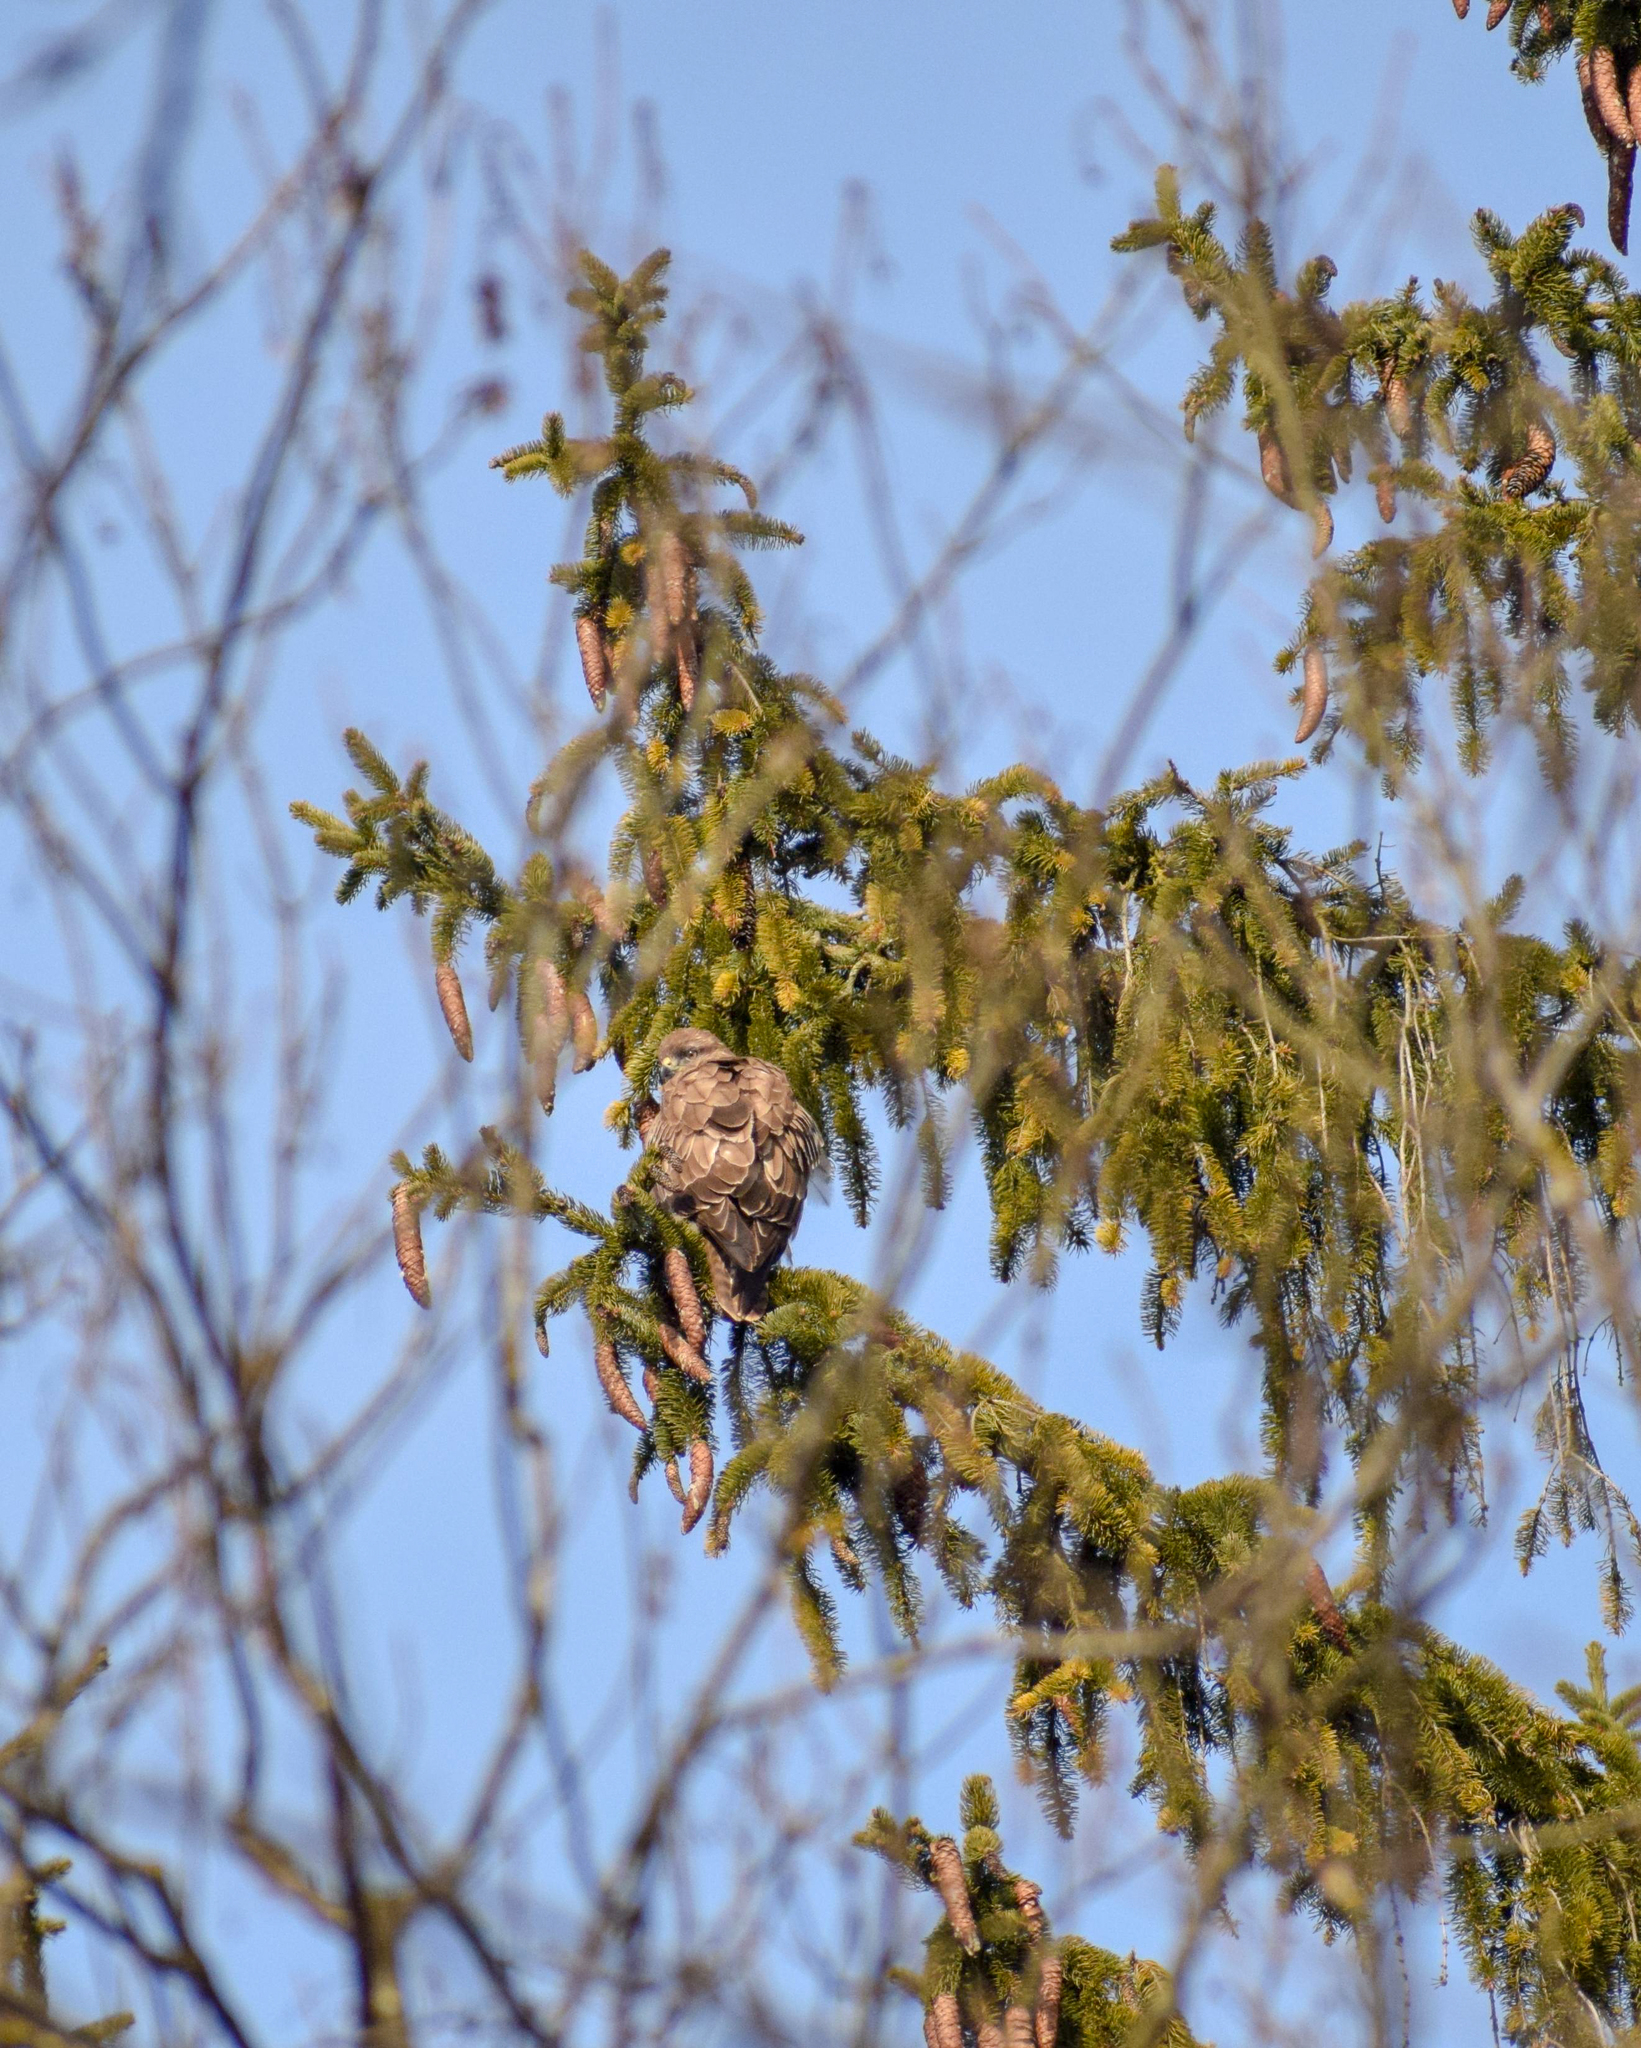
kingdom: Plantae
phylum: Tracheophyta
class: Pinopsida
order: Pinales
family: Pinaceae
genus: Picea
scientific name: Picea abies
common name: Norway spruce
